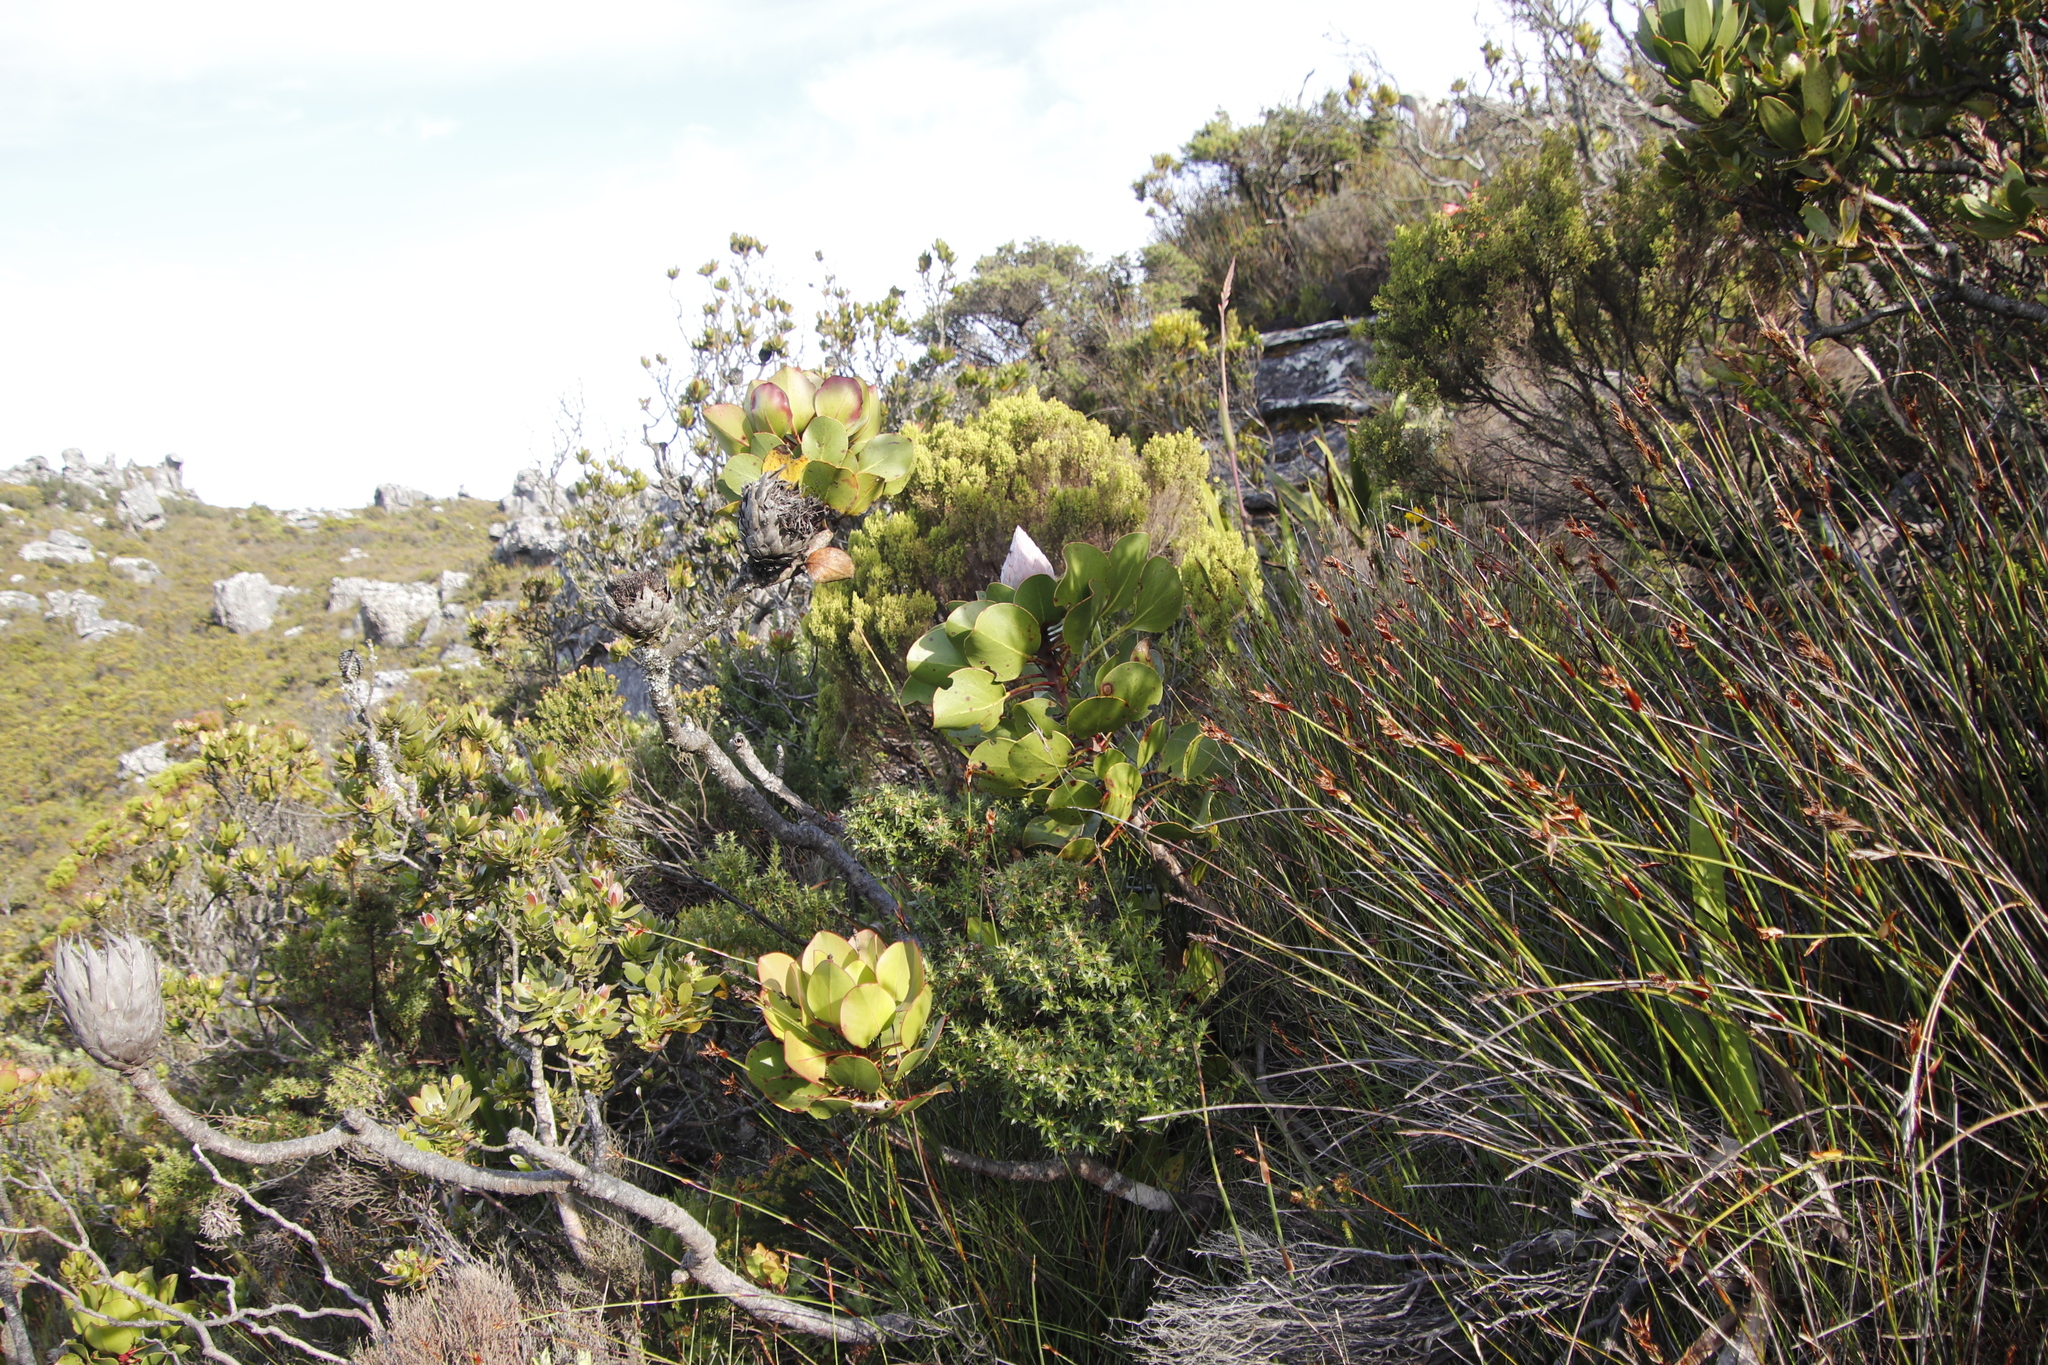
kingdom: Plantae
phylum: Tracheophyta
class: Magnoliopsida
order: Proteales
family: Proteaceae
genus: Protea
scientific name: Protea cynaroides
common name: King protea
